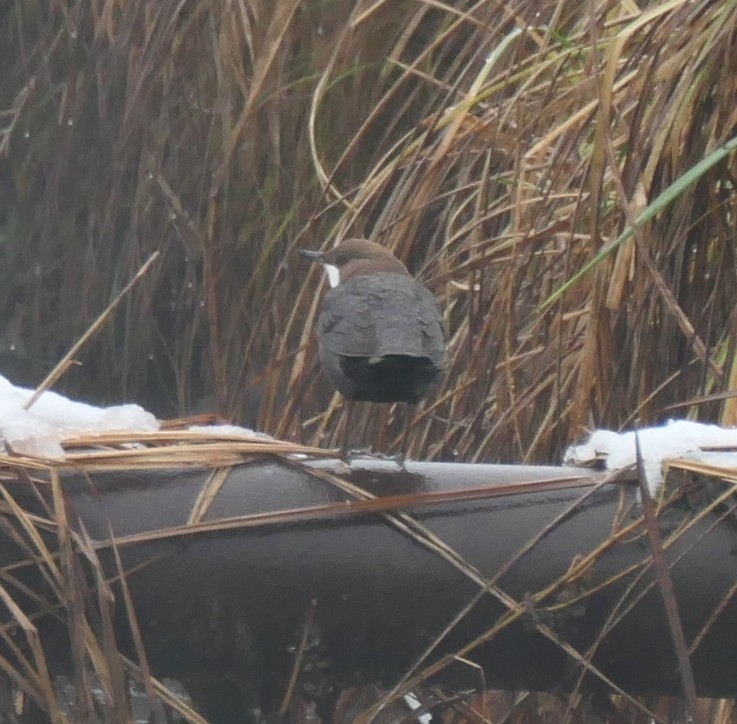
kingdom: Animalia
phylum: Chordata
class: Aves
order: Passeriformes
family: Cinclidae
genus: Cinclus
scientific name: Cinclus cinclus
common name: White-throated dipper
